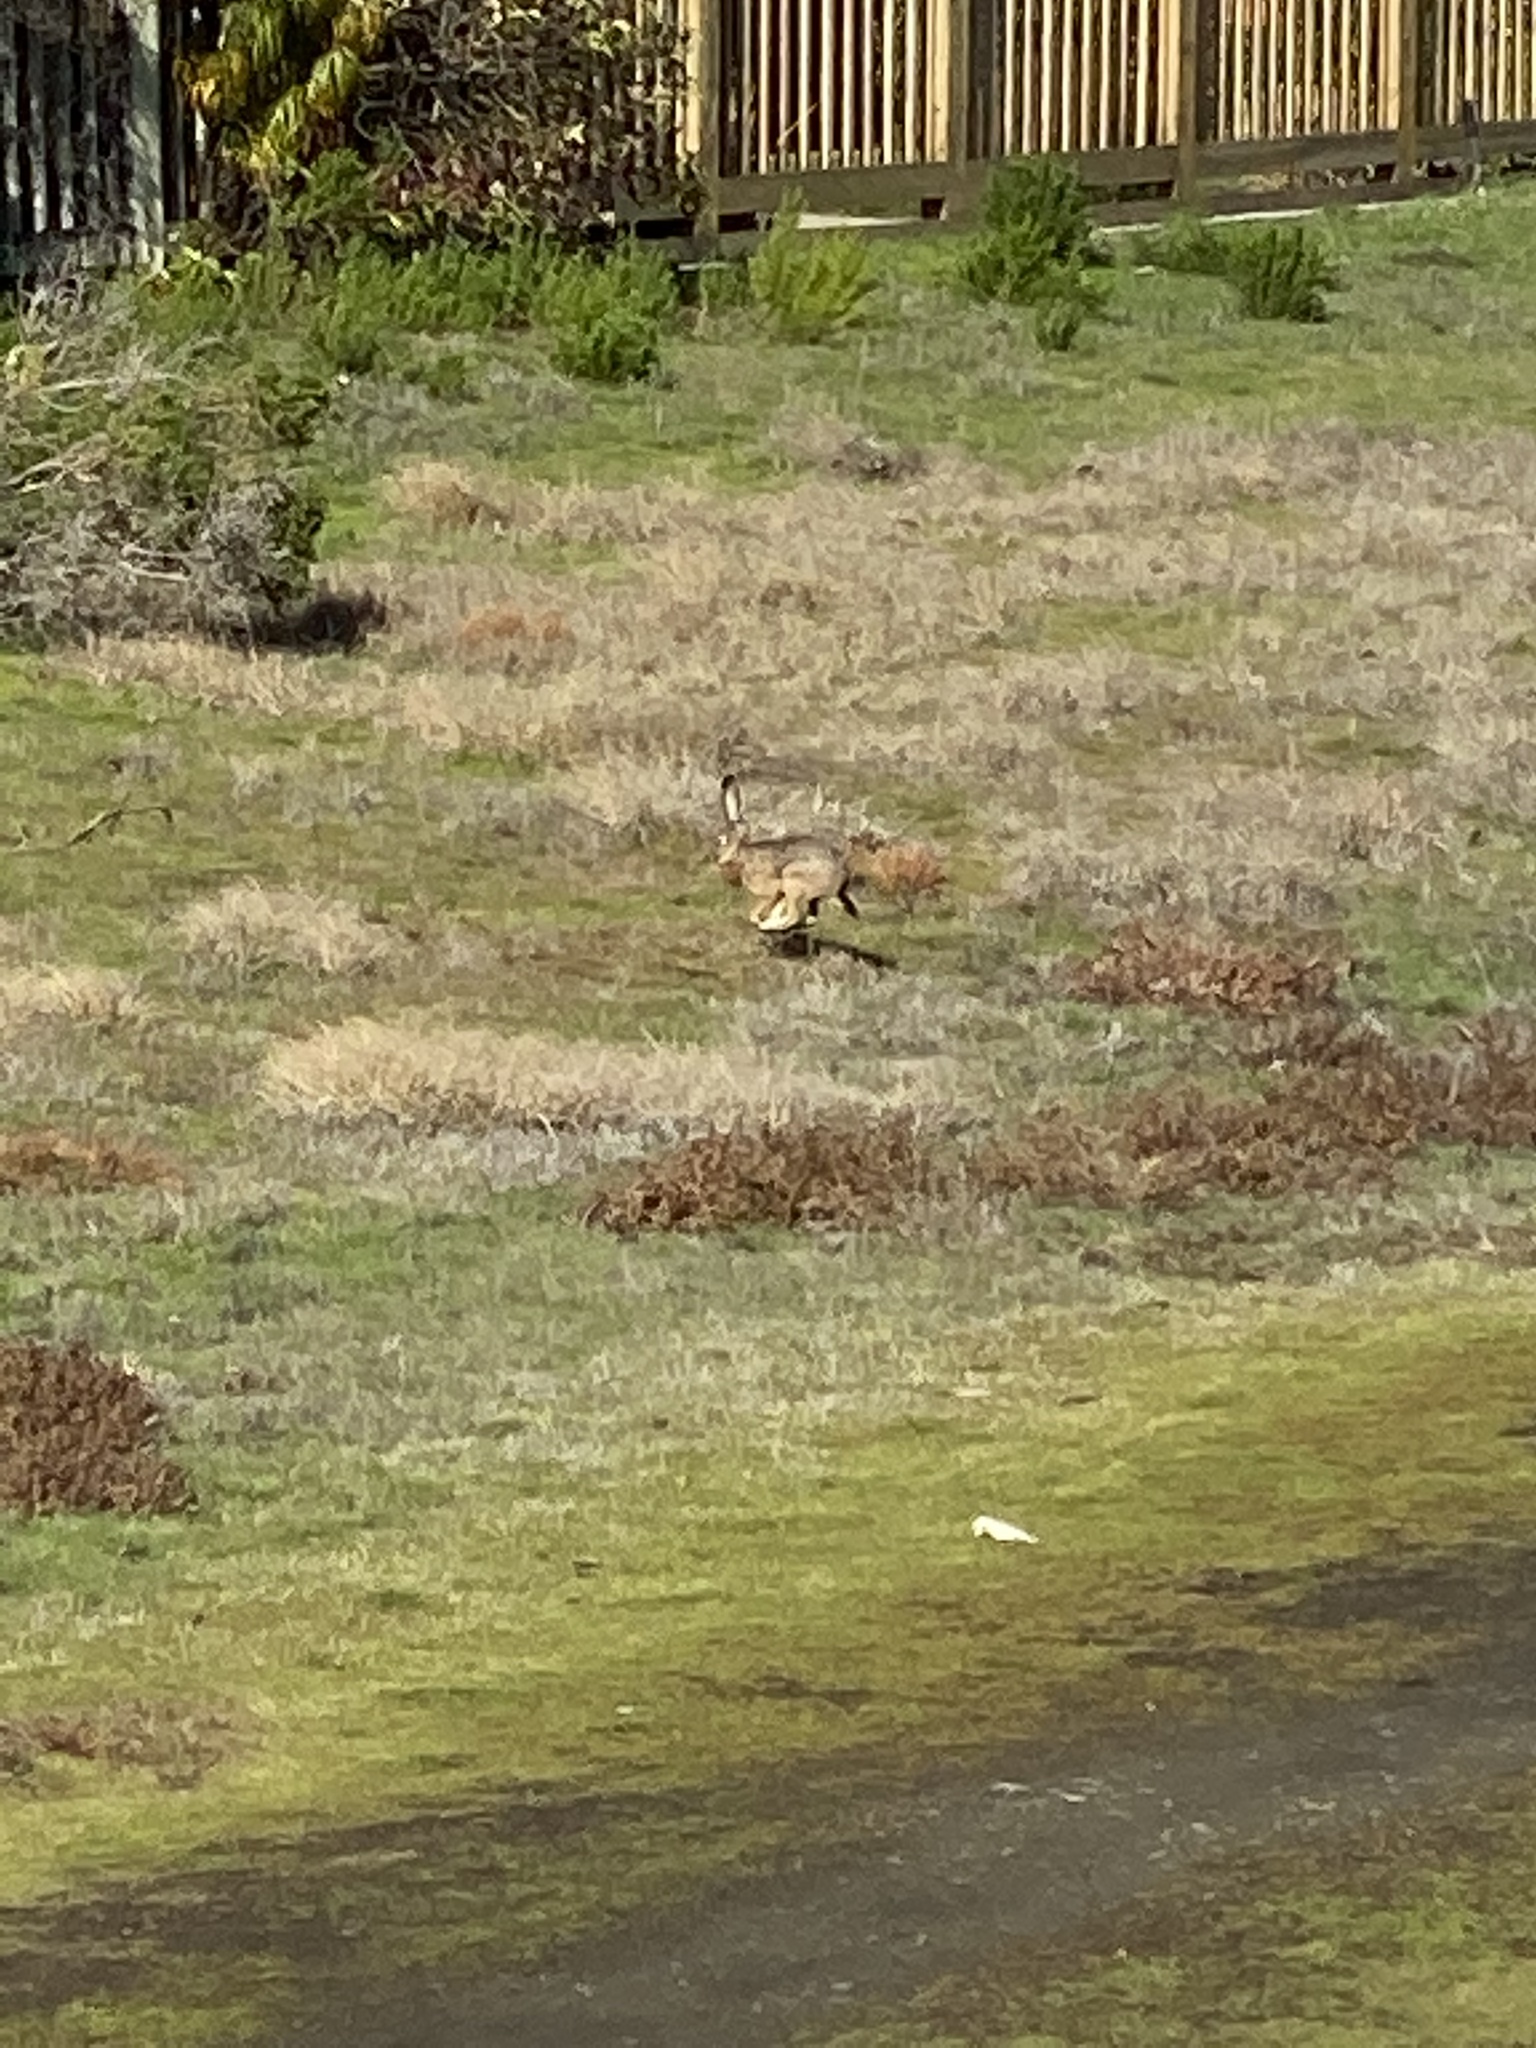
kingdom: Animalia
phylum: Chordata
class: Mammalia
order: Lagomorpha
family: Leporidae
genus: Lepus
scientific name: Lepus californicus
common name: Black-tailed jackrabbit
